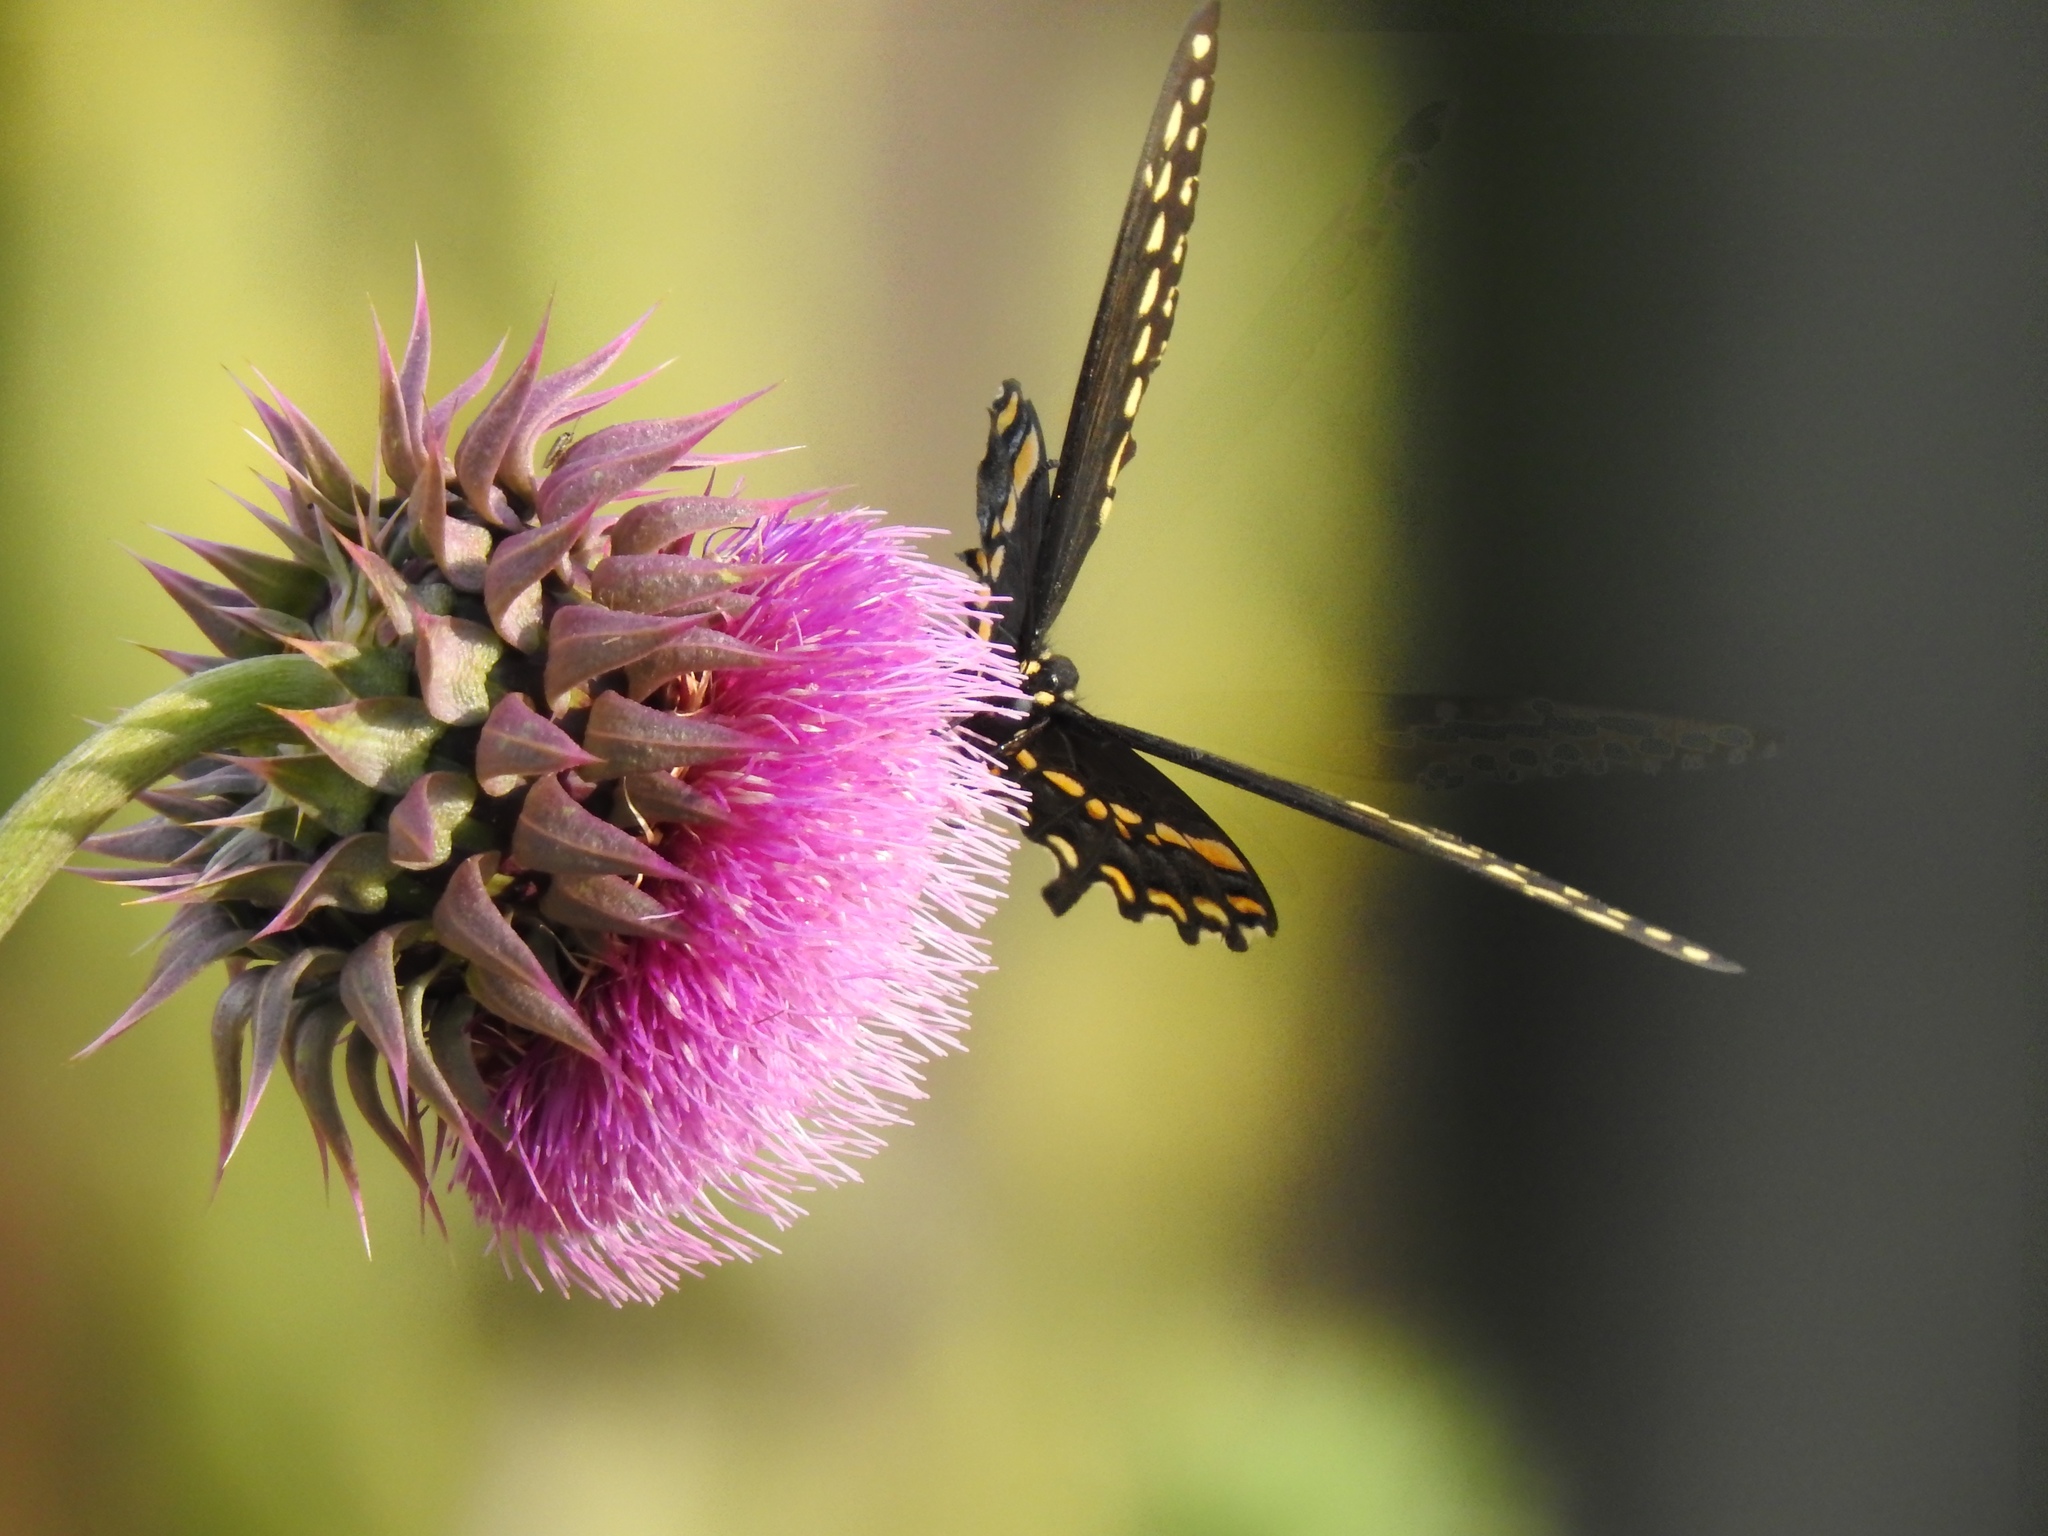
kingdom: Animalia
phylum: Arthropoda
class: Insecta
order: Lepidoptera
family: Papilionidae
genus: Papilio
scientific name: Papilio polyxenes
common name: Black swallowtail
